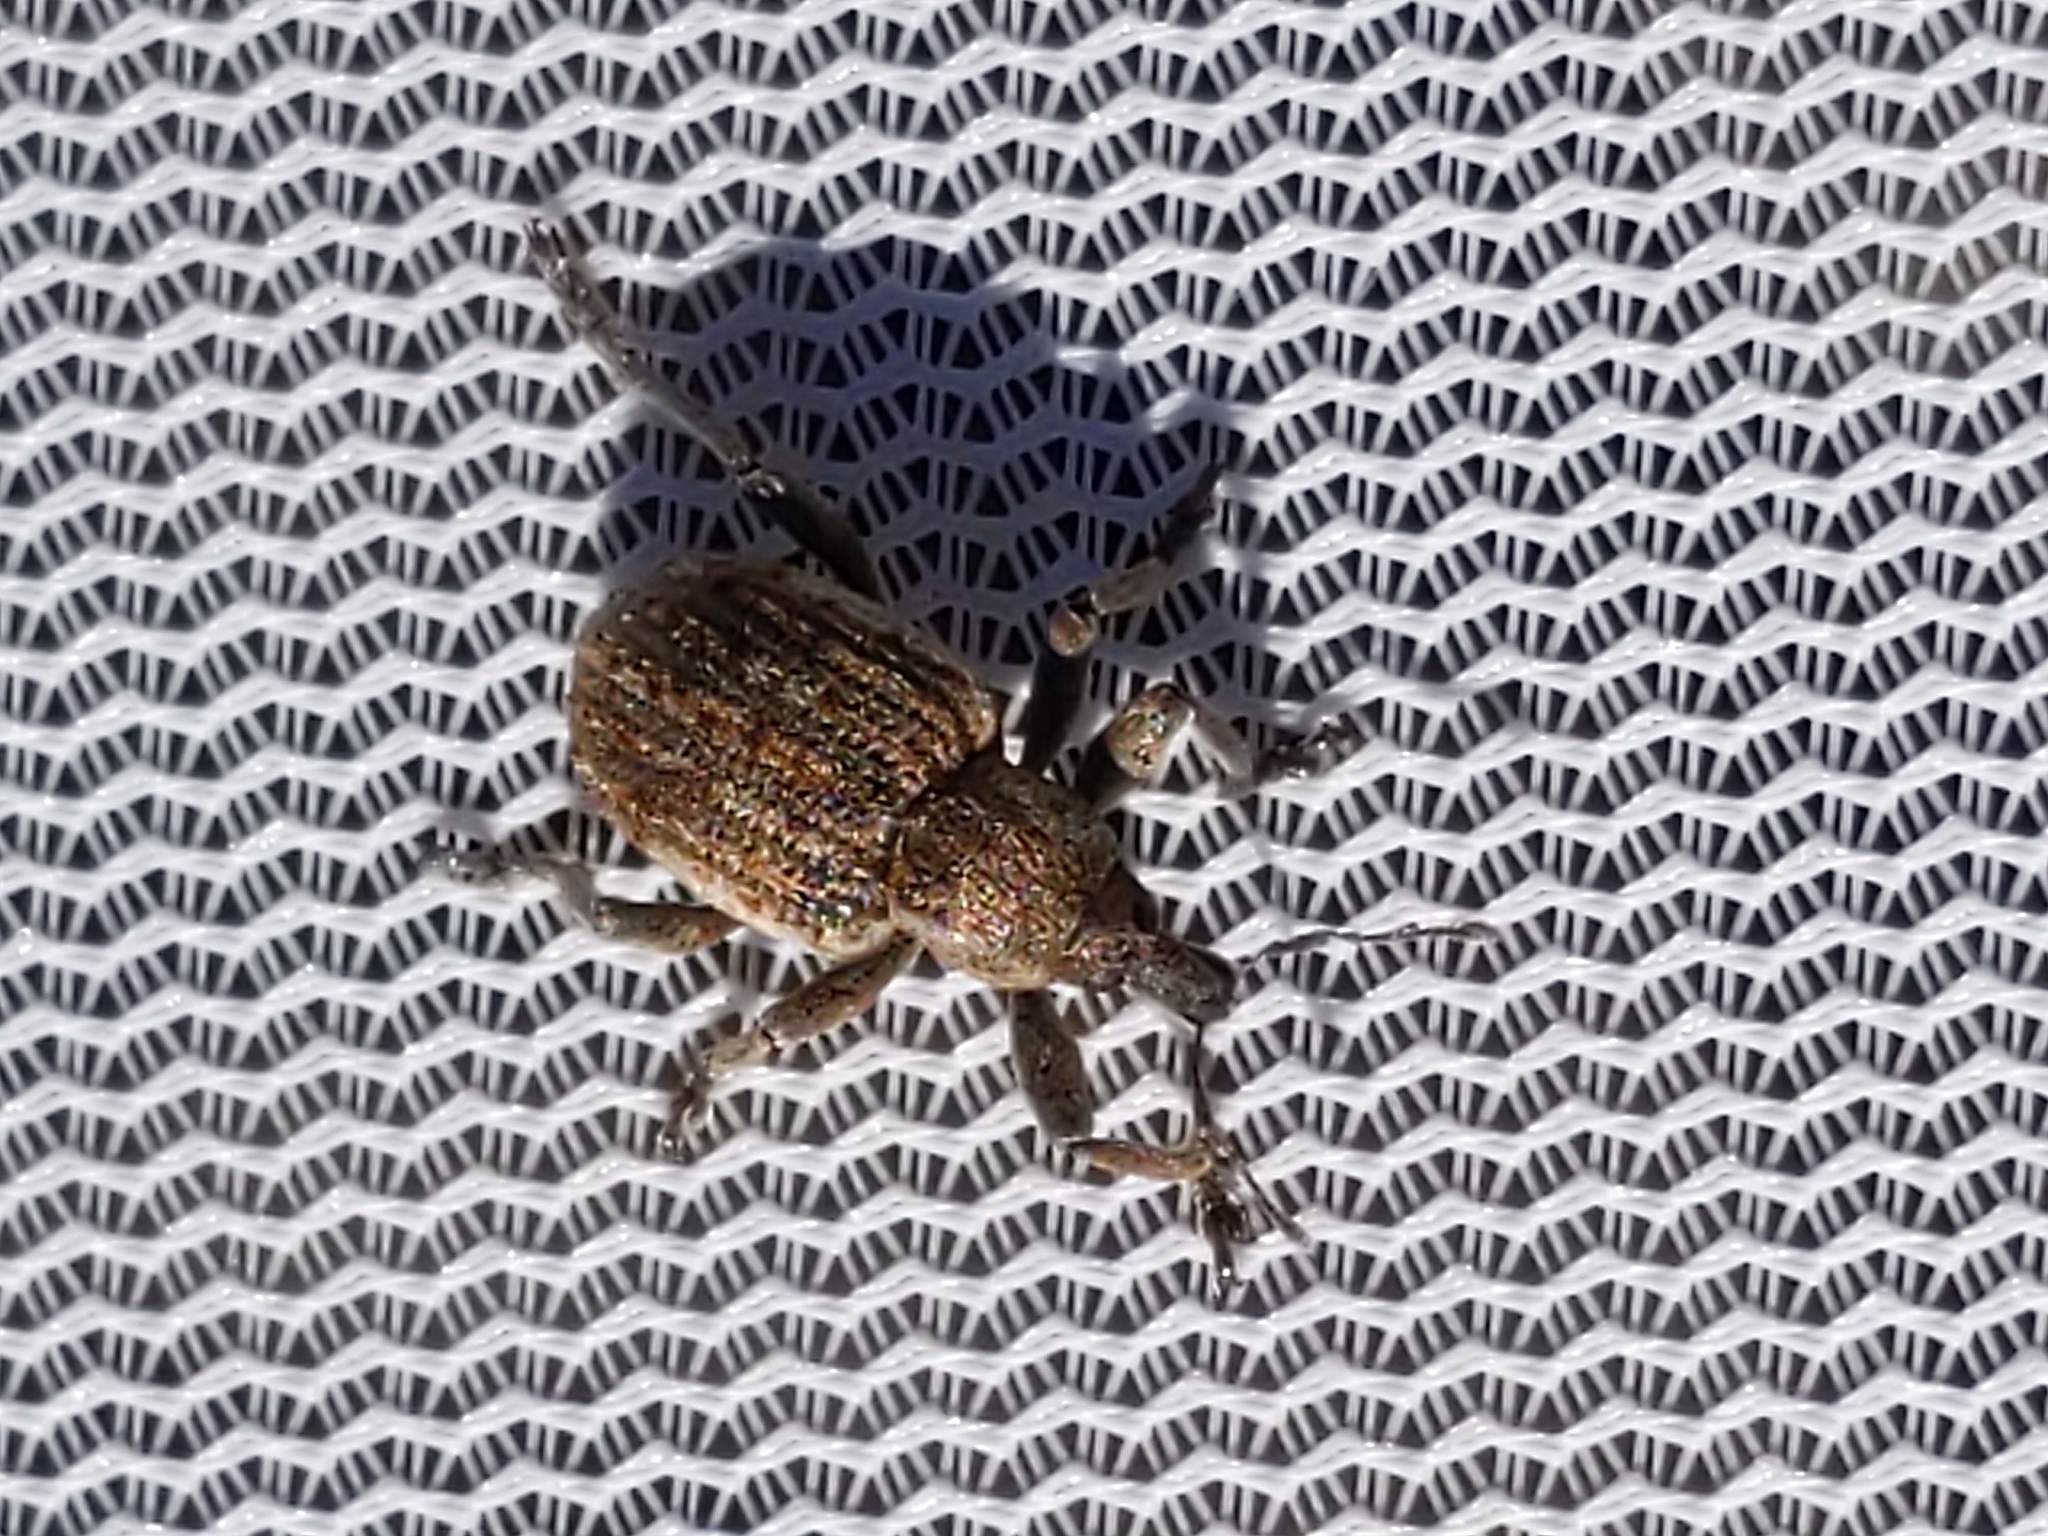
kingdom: Animalia
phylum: Arthropoda
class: Insecta
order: Coleoptera
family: Curculionidae
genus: Brachypera
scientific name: Brachypera zoilus
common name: Clover leaf weevil
